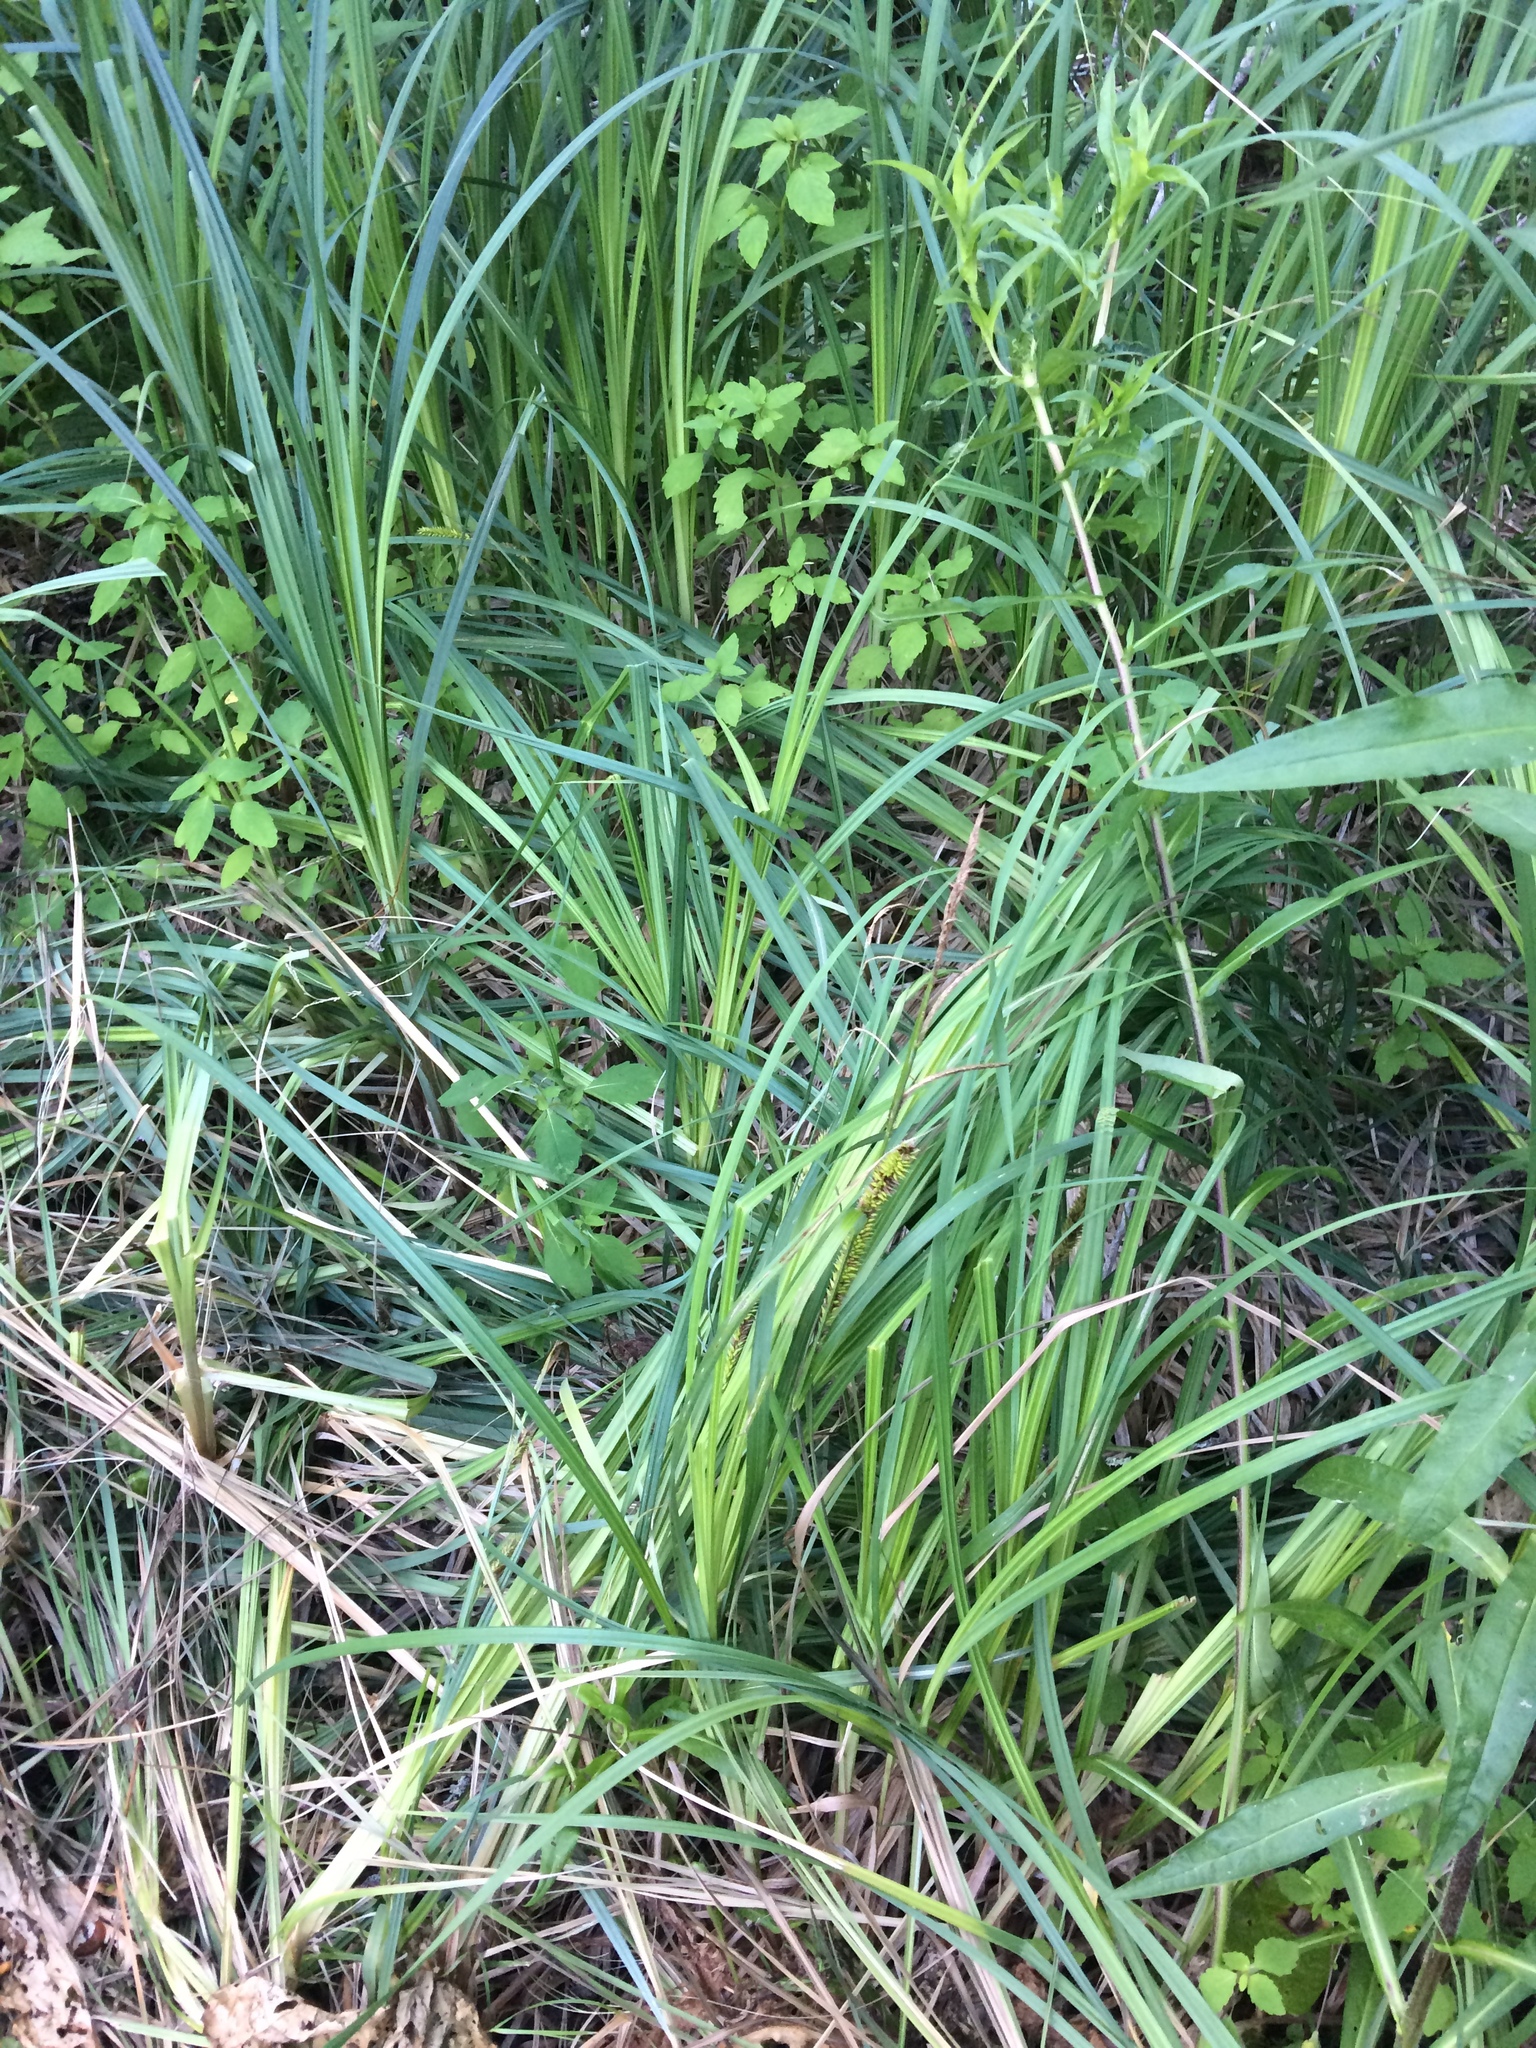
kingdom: Plantae
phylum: Tracheophyta
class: Liliopsida
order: Poales
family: Cyperaceae
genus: Carex
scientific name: Carex lacustris
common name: Common lake sedge
